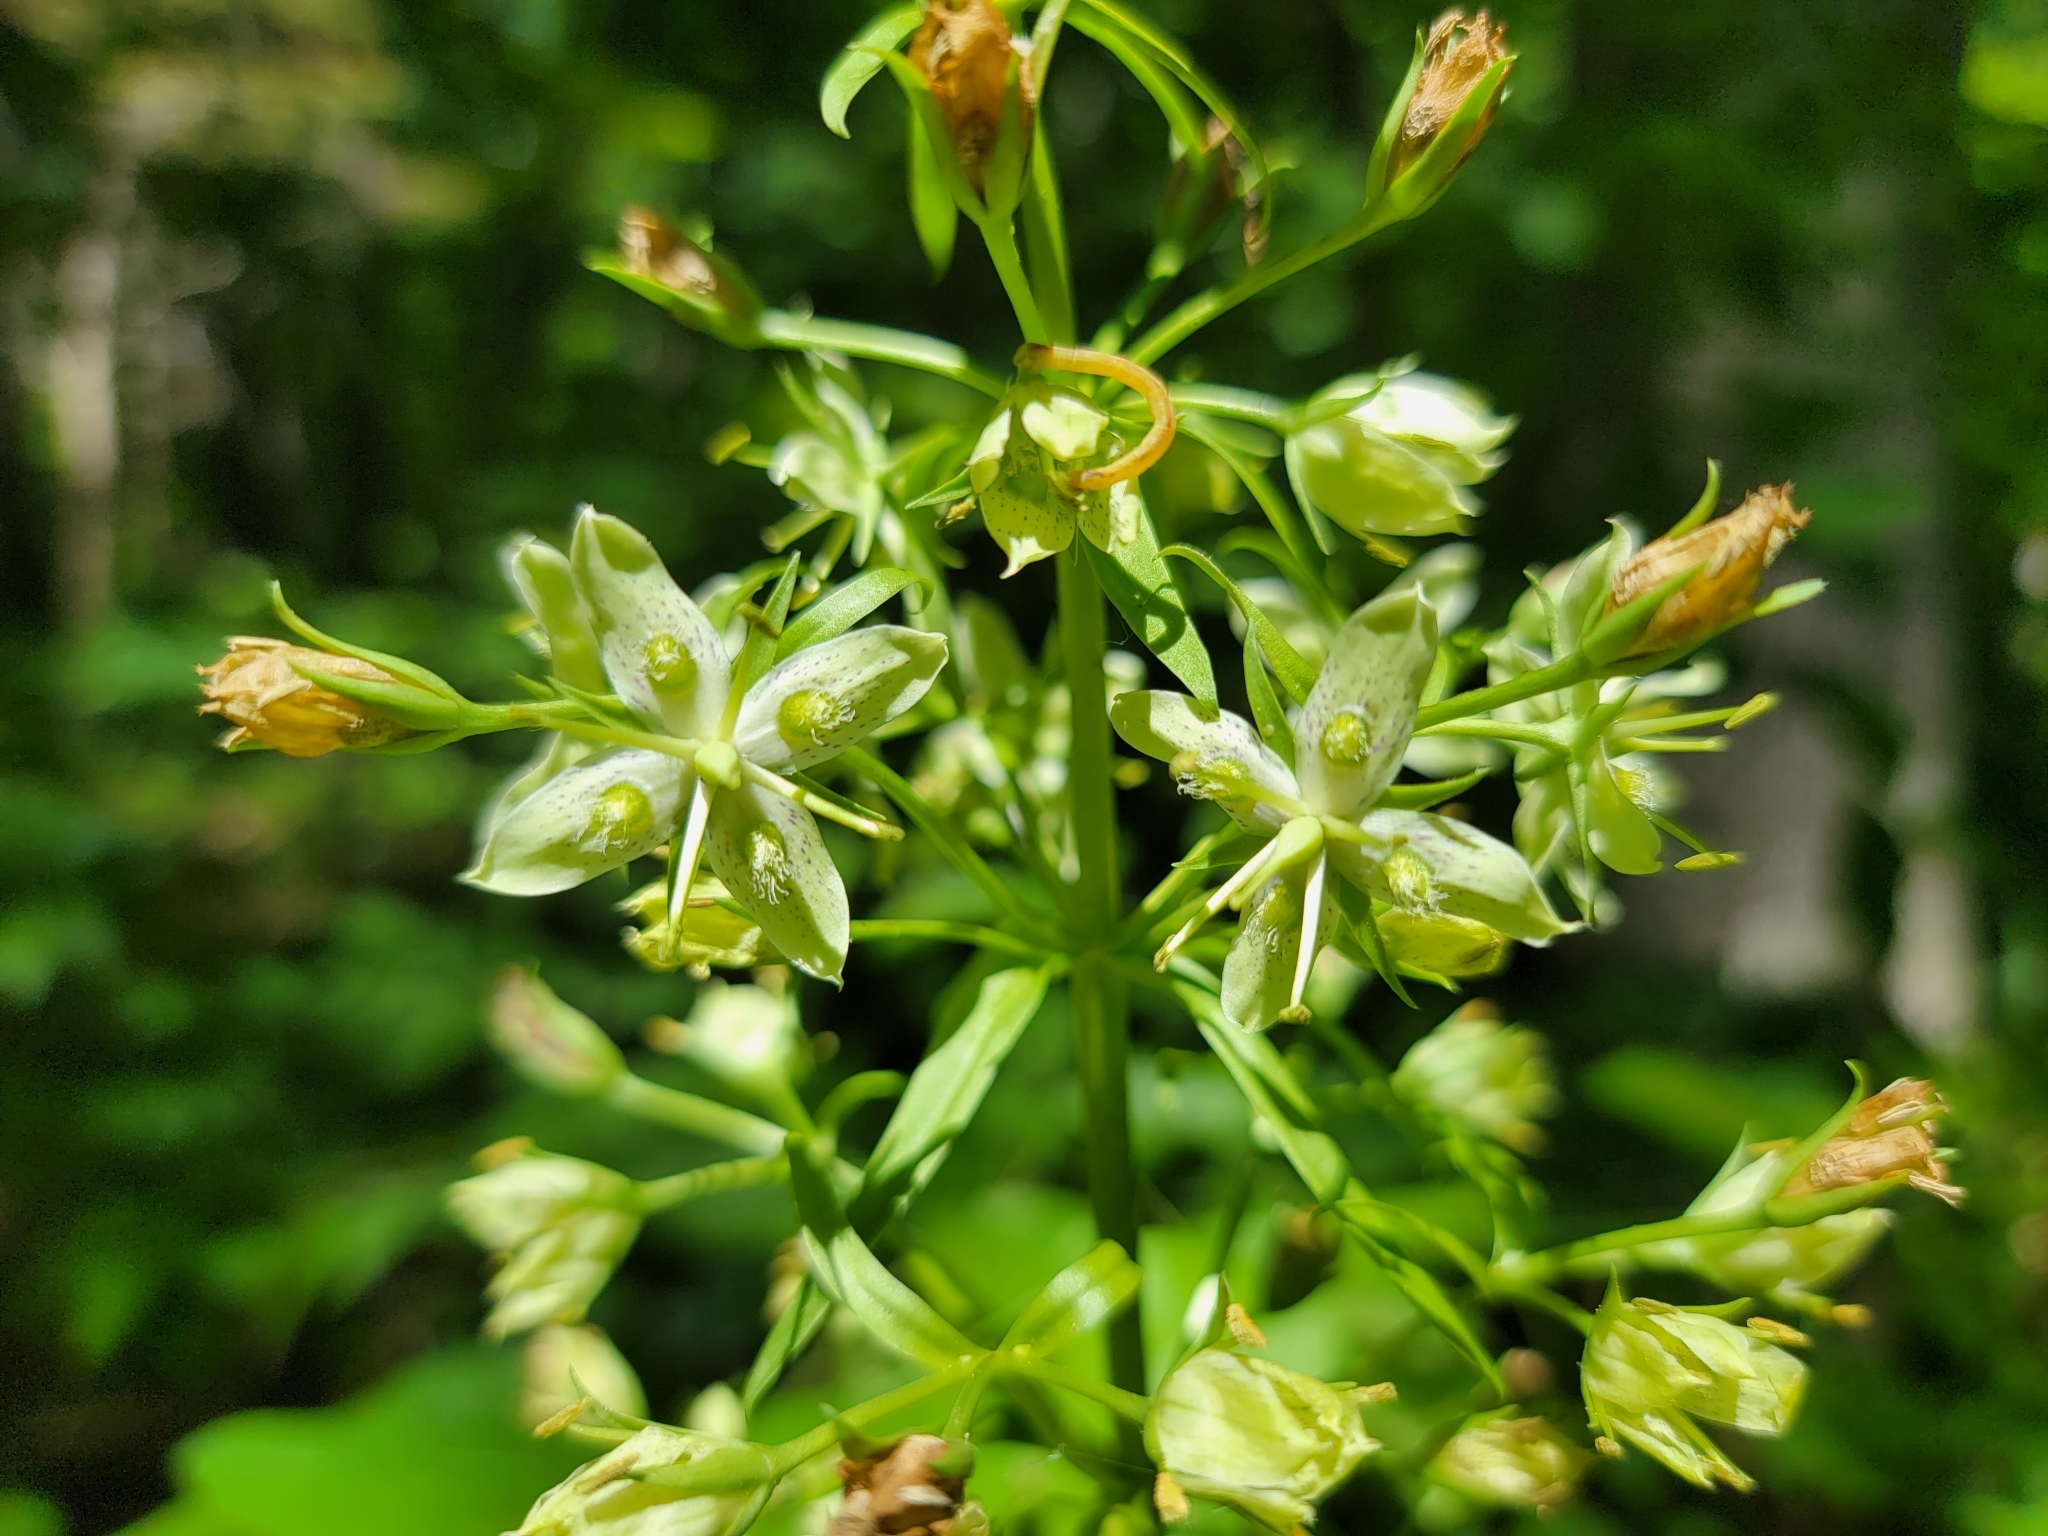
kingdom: Plantae
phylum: Tracheophyta
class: Magnoliopsida
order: Gentianales
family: Gentianaceae
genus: Frasera
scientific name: Frasera caroliniensis
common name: American columbo
